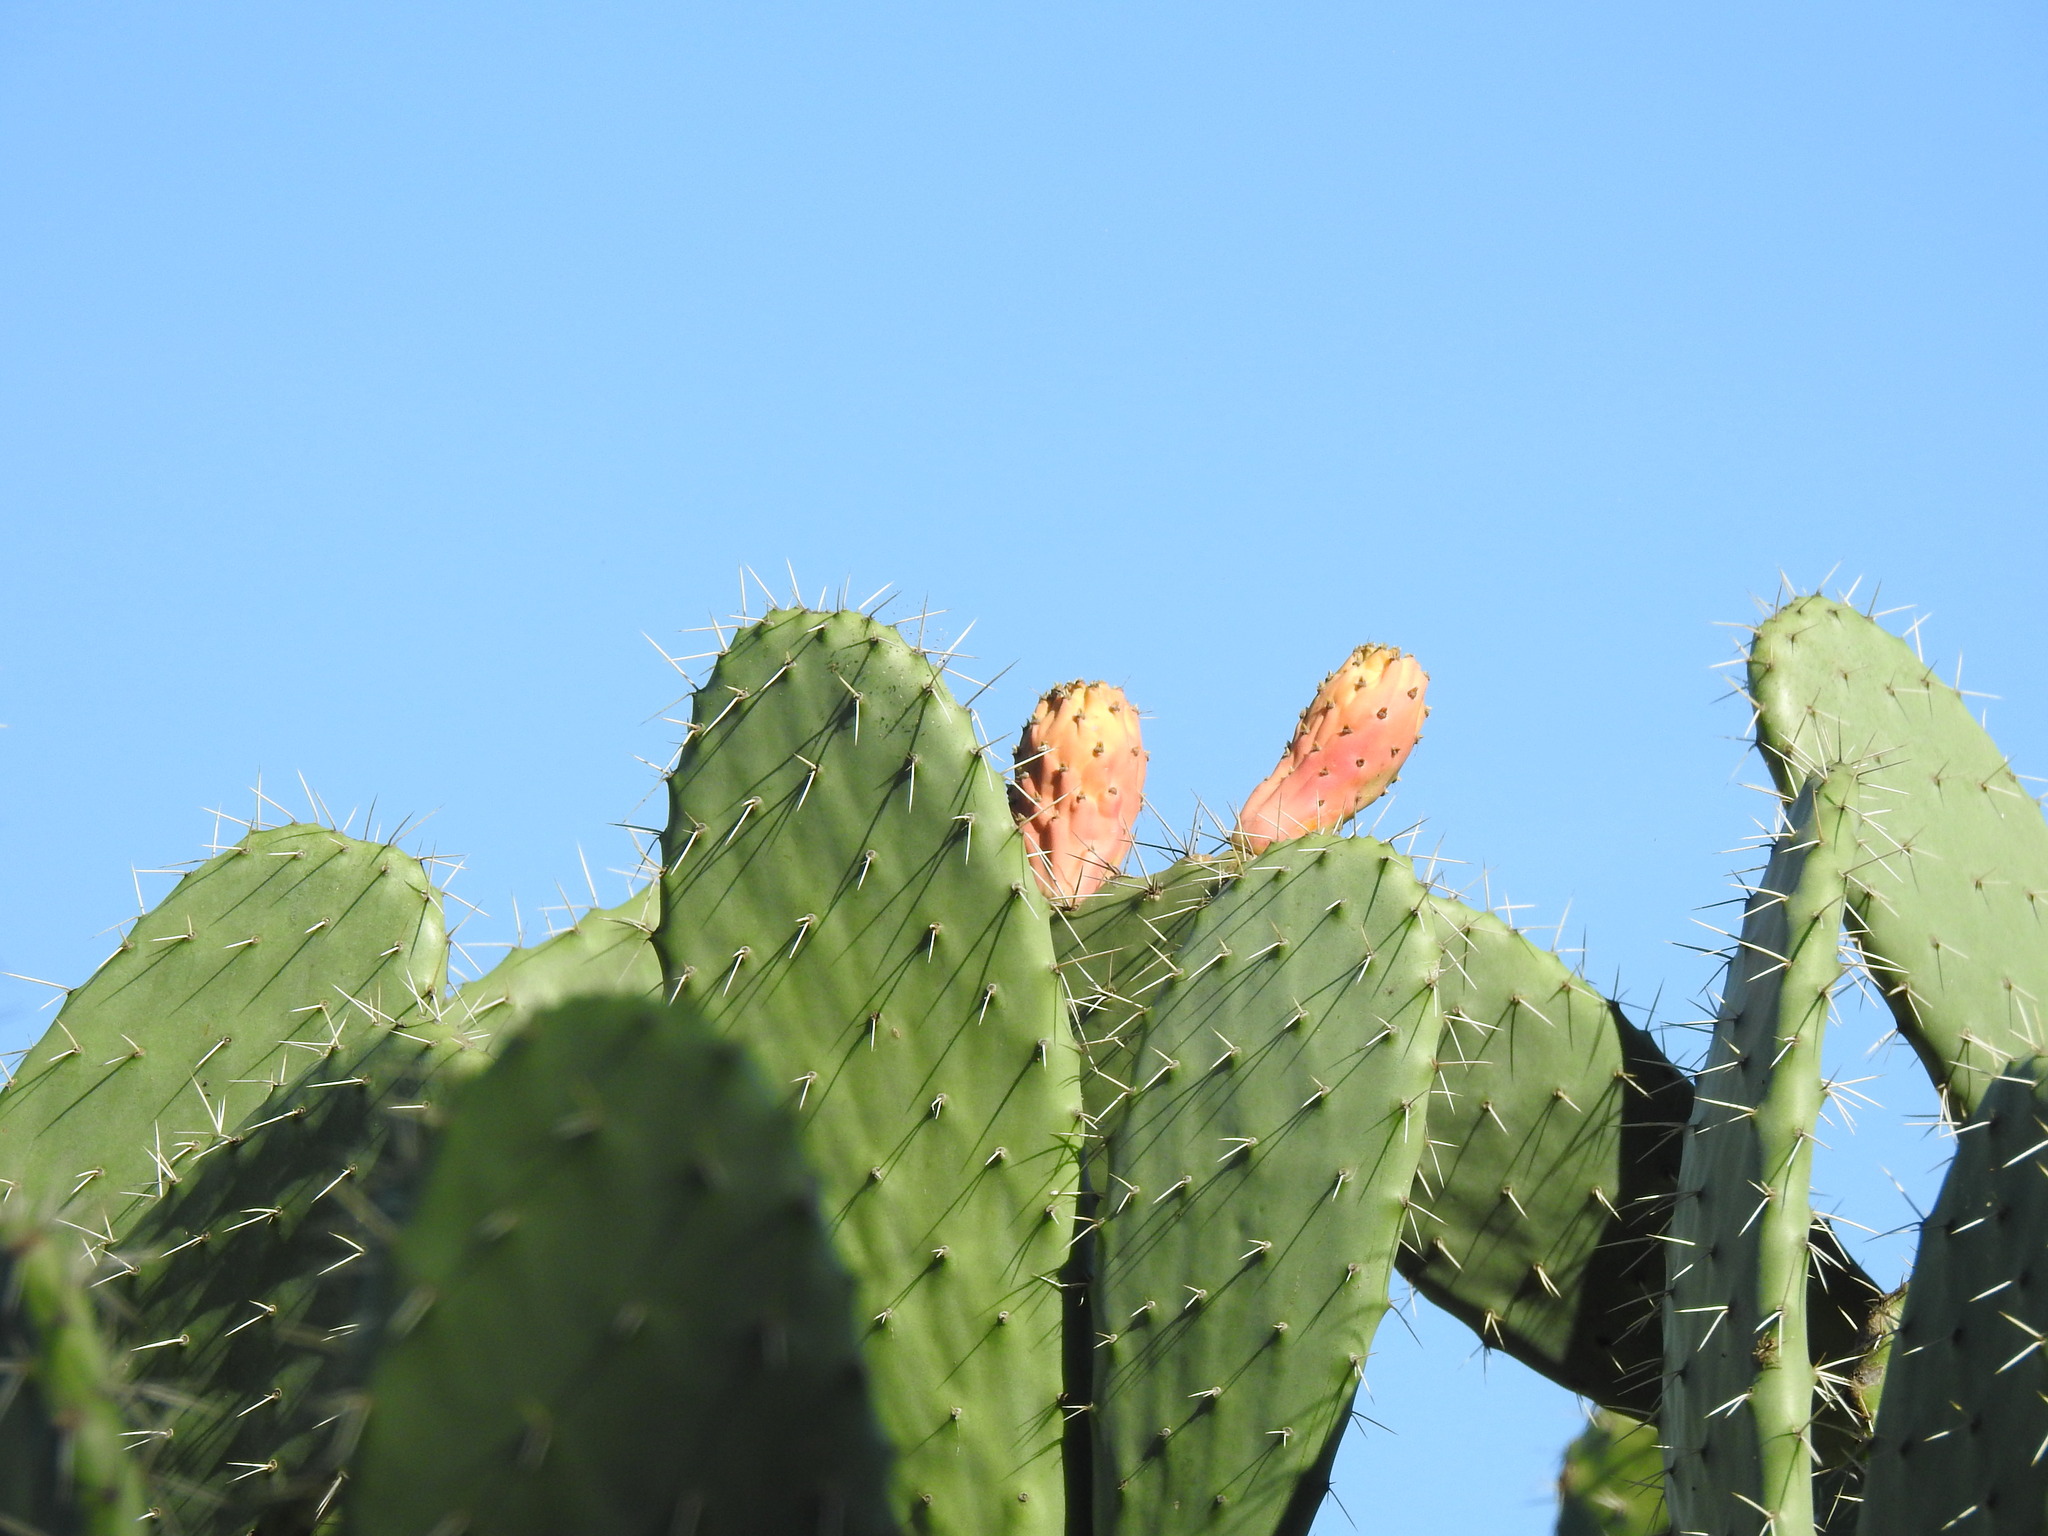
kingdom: Plantae
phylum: Tracheophyta
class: Magnoliopsida
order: Caryophyllales
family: Cactaceae
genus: Opuntia
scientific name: Opuntia ficus-indica
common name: Barbary fig
